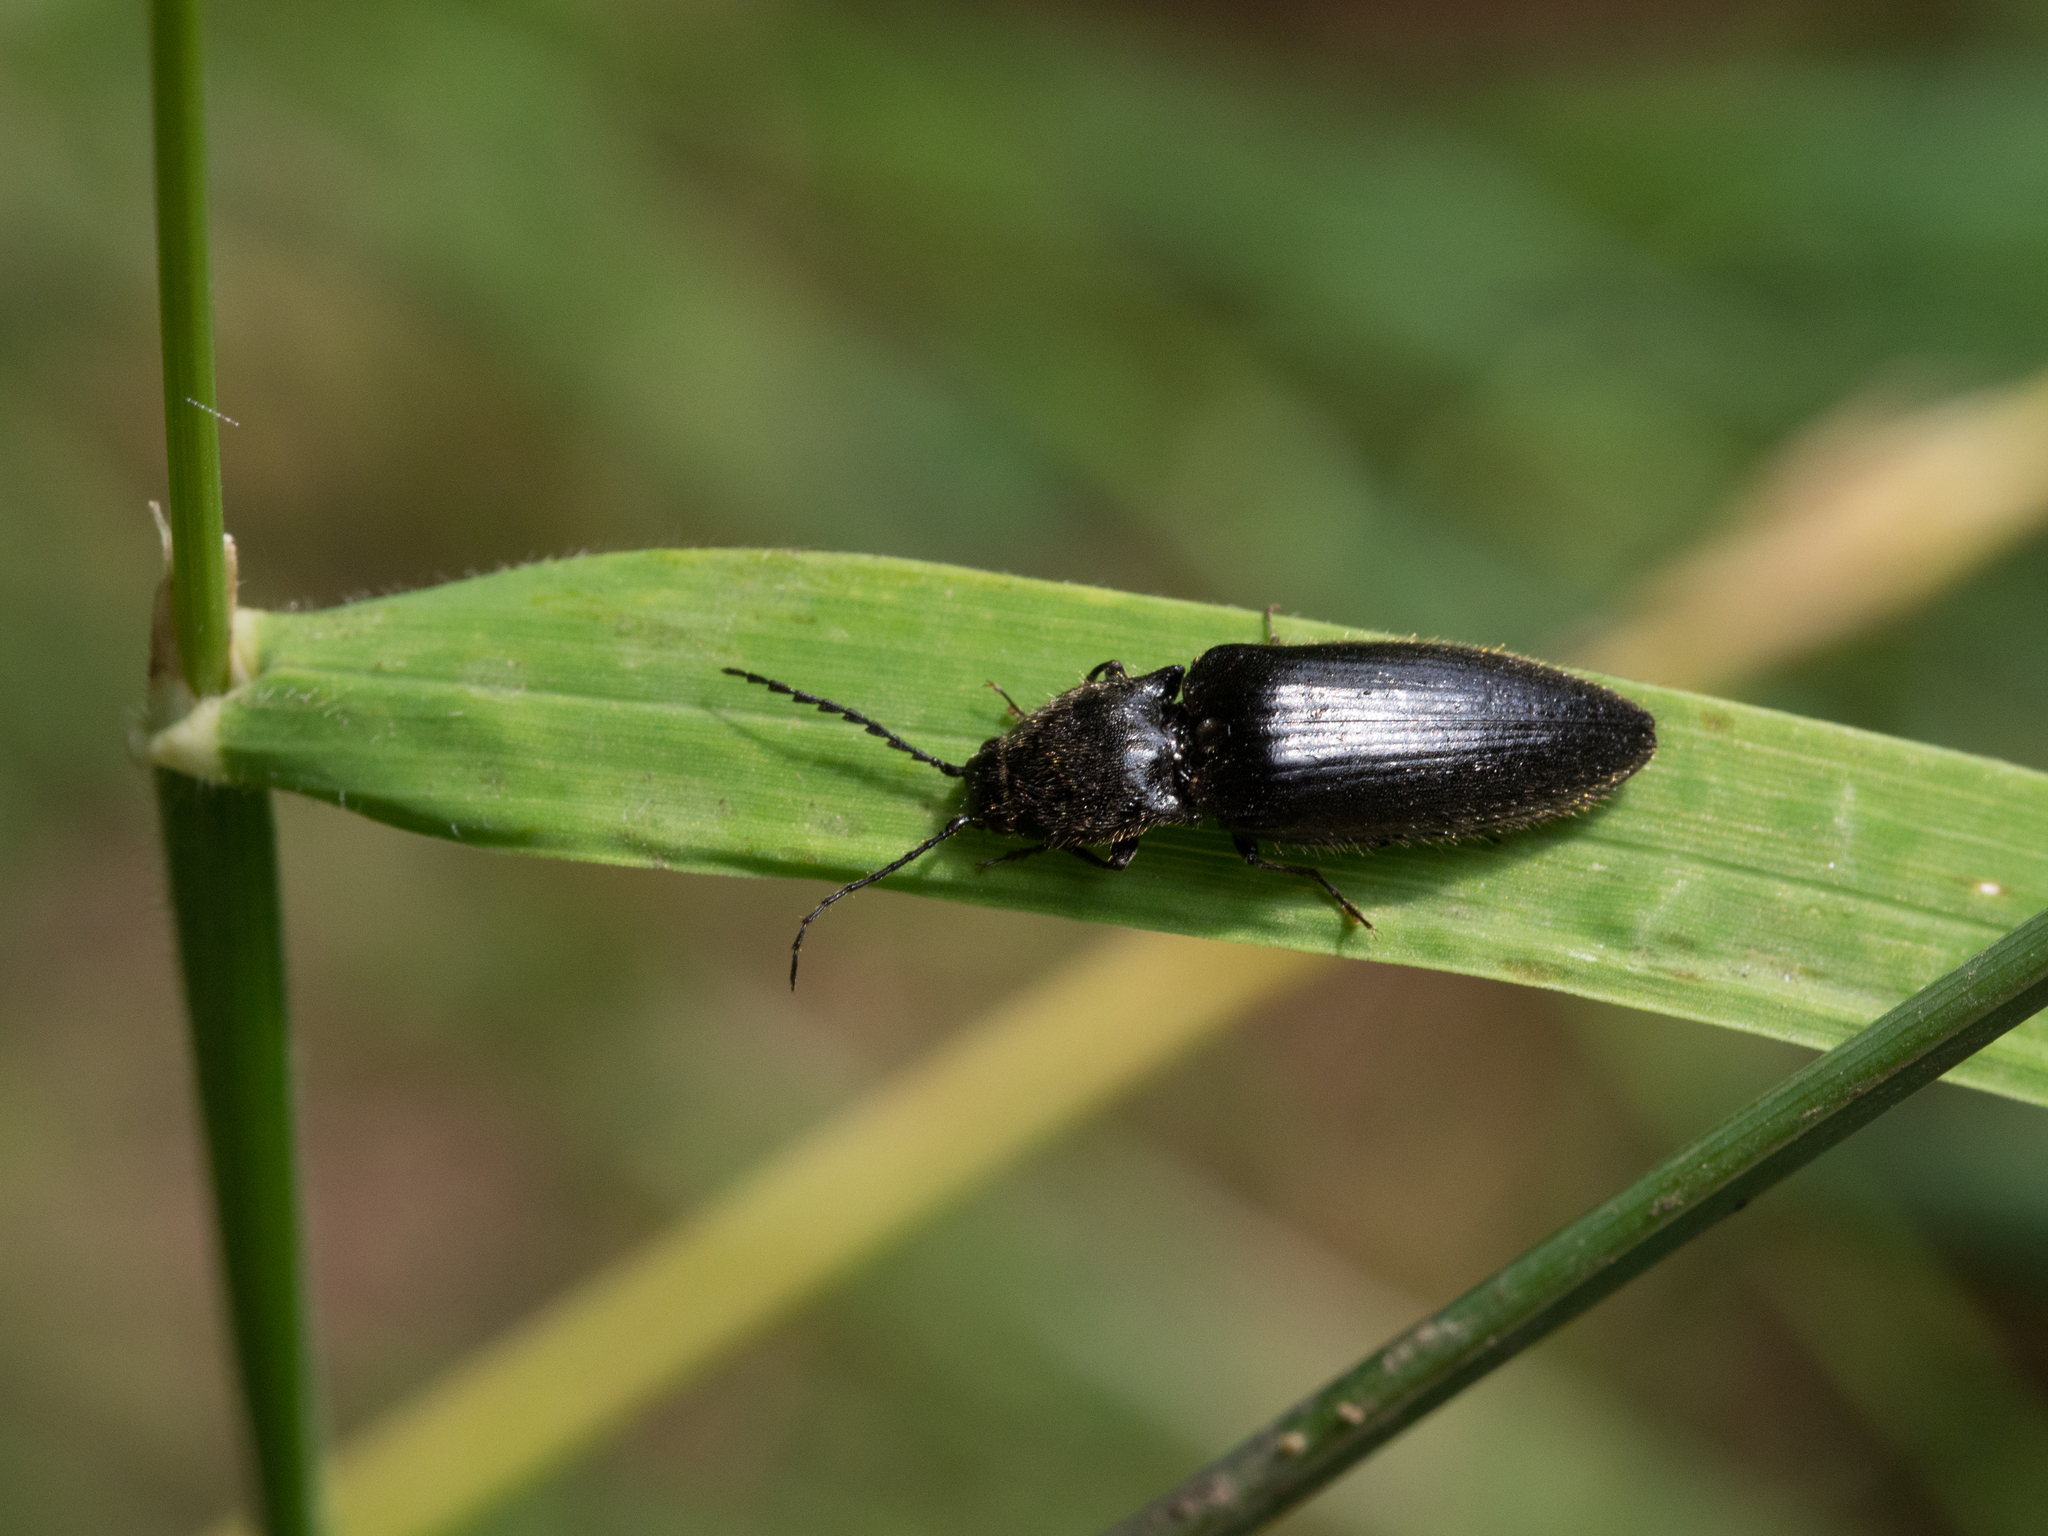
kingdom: Animalia
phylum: Arthropoda
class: Insecta
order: Coleoptera
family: Elateridae
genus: Hemicrepidius
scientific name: Hemicrepidius niger
